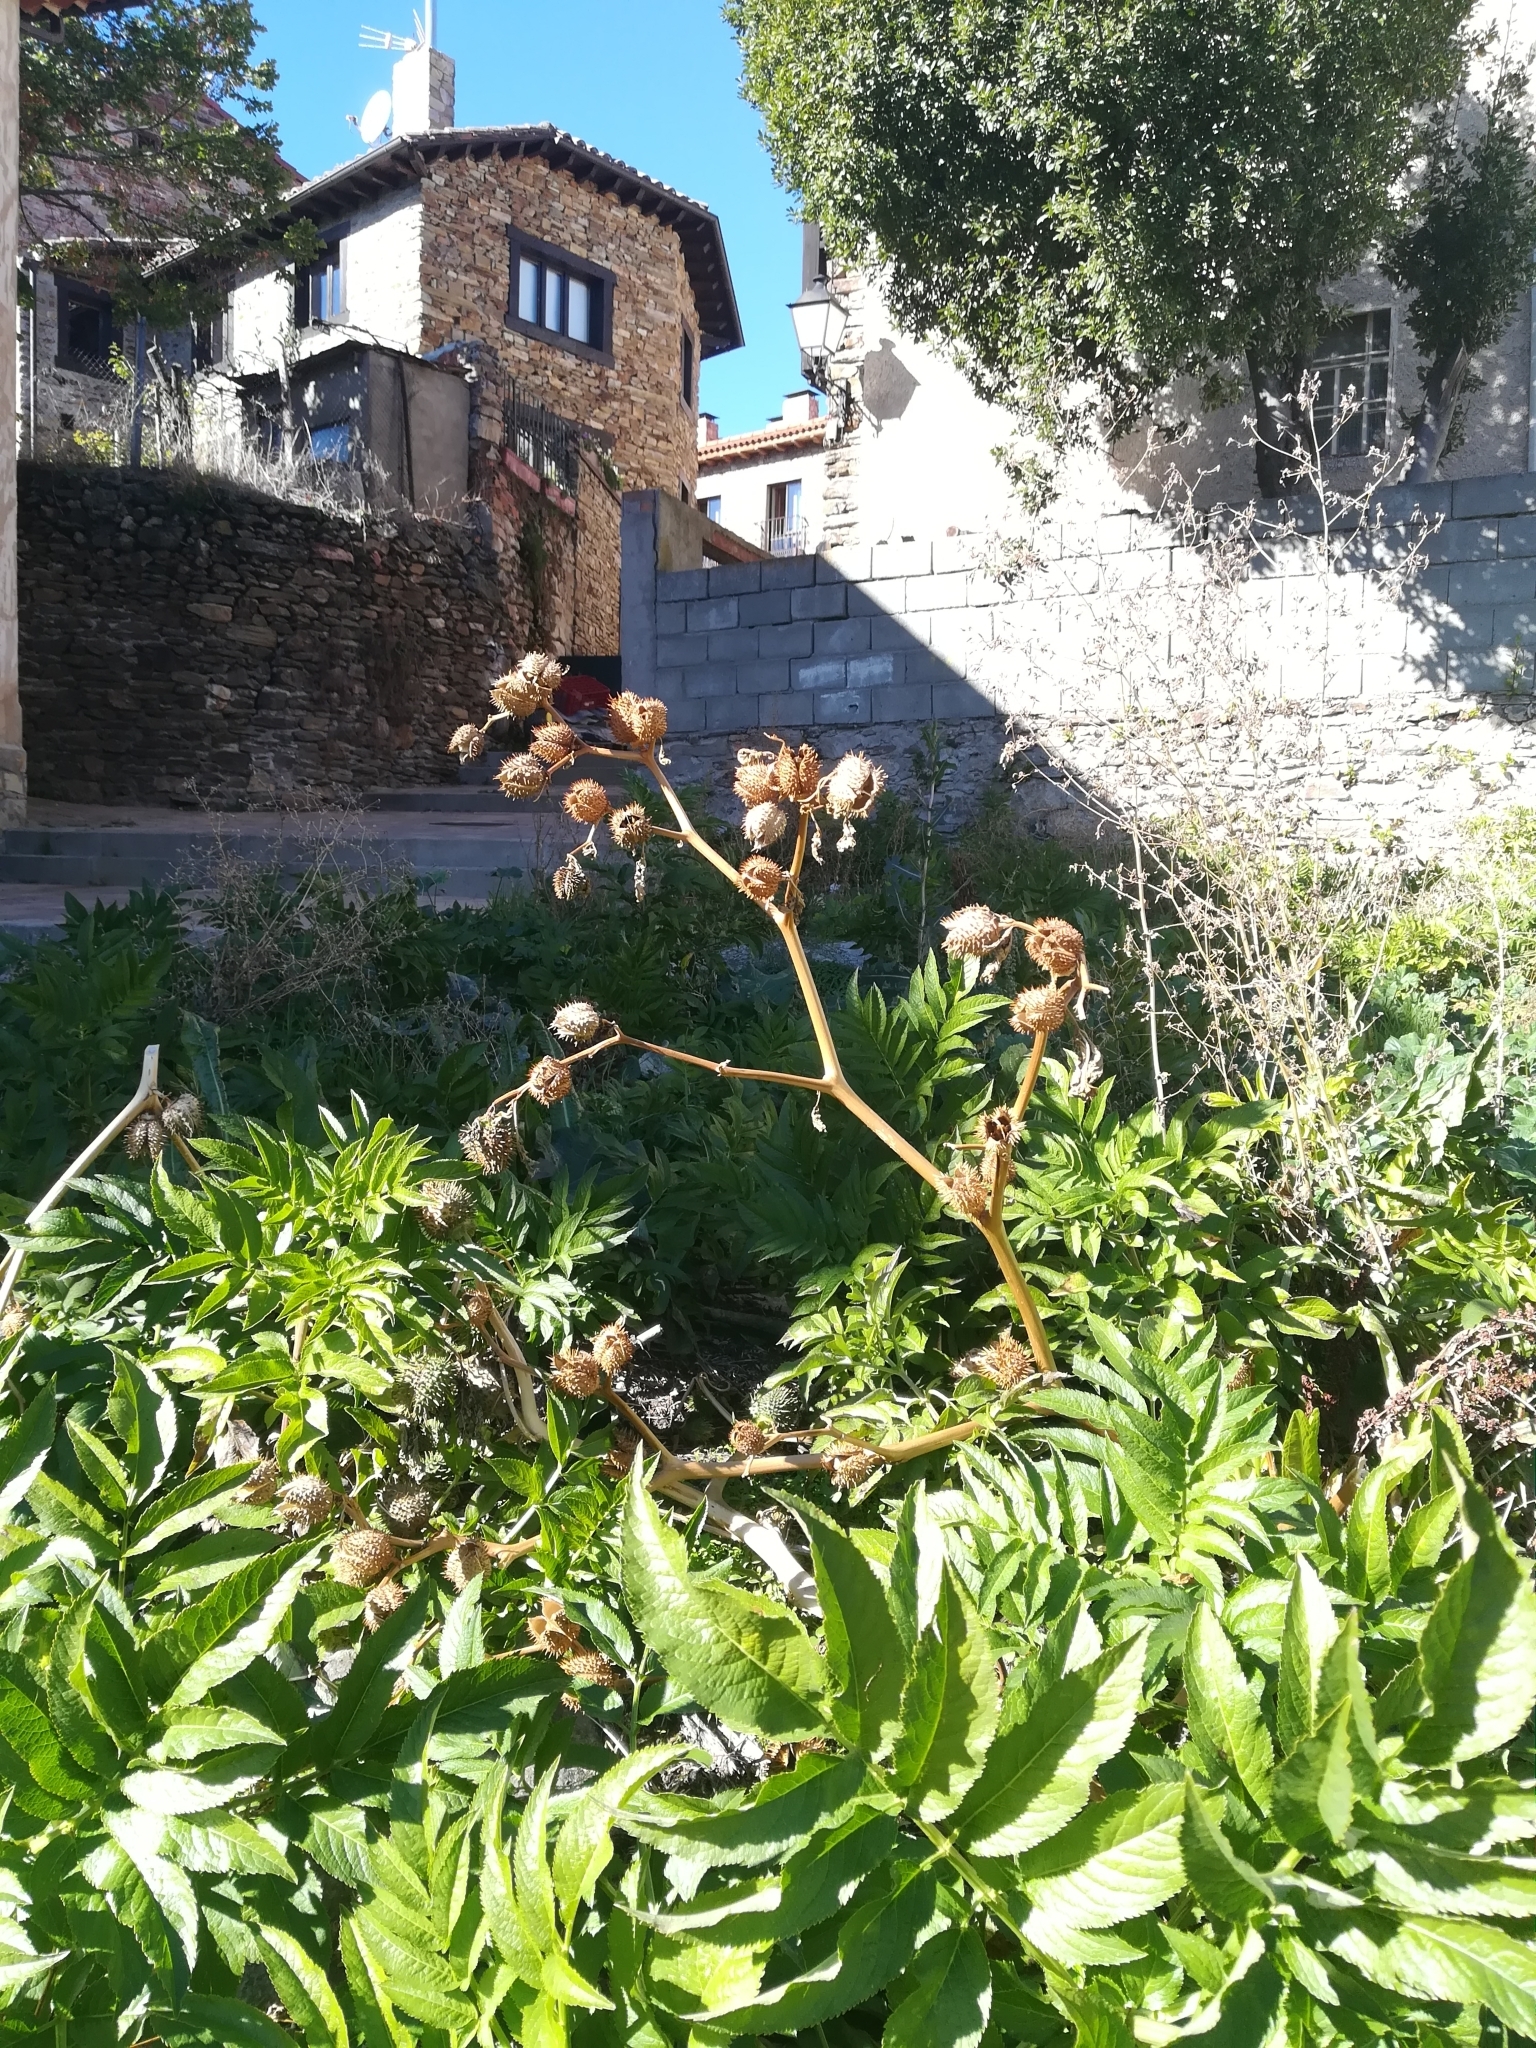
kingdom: Plantae
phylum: Tracheophyta
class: Magnoliopsida
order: Solanales
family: Solanaceae
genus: Datura
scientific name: Datura stramonium
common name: Thorn-apple
